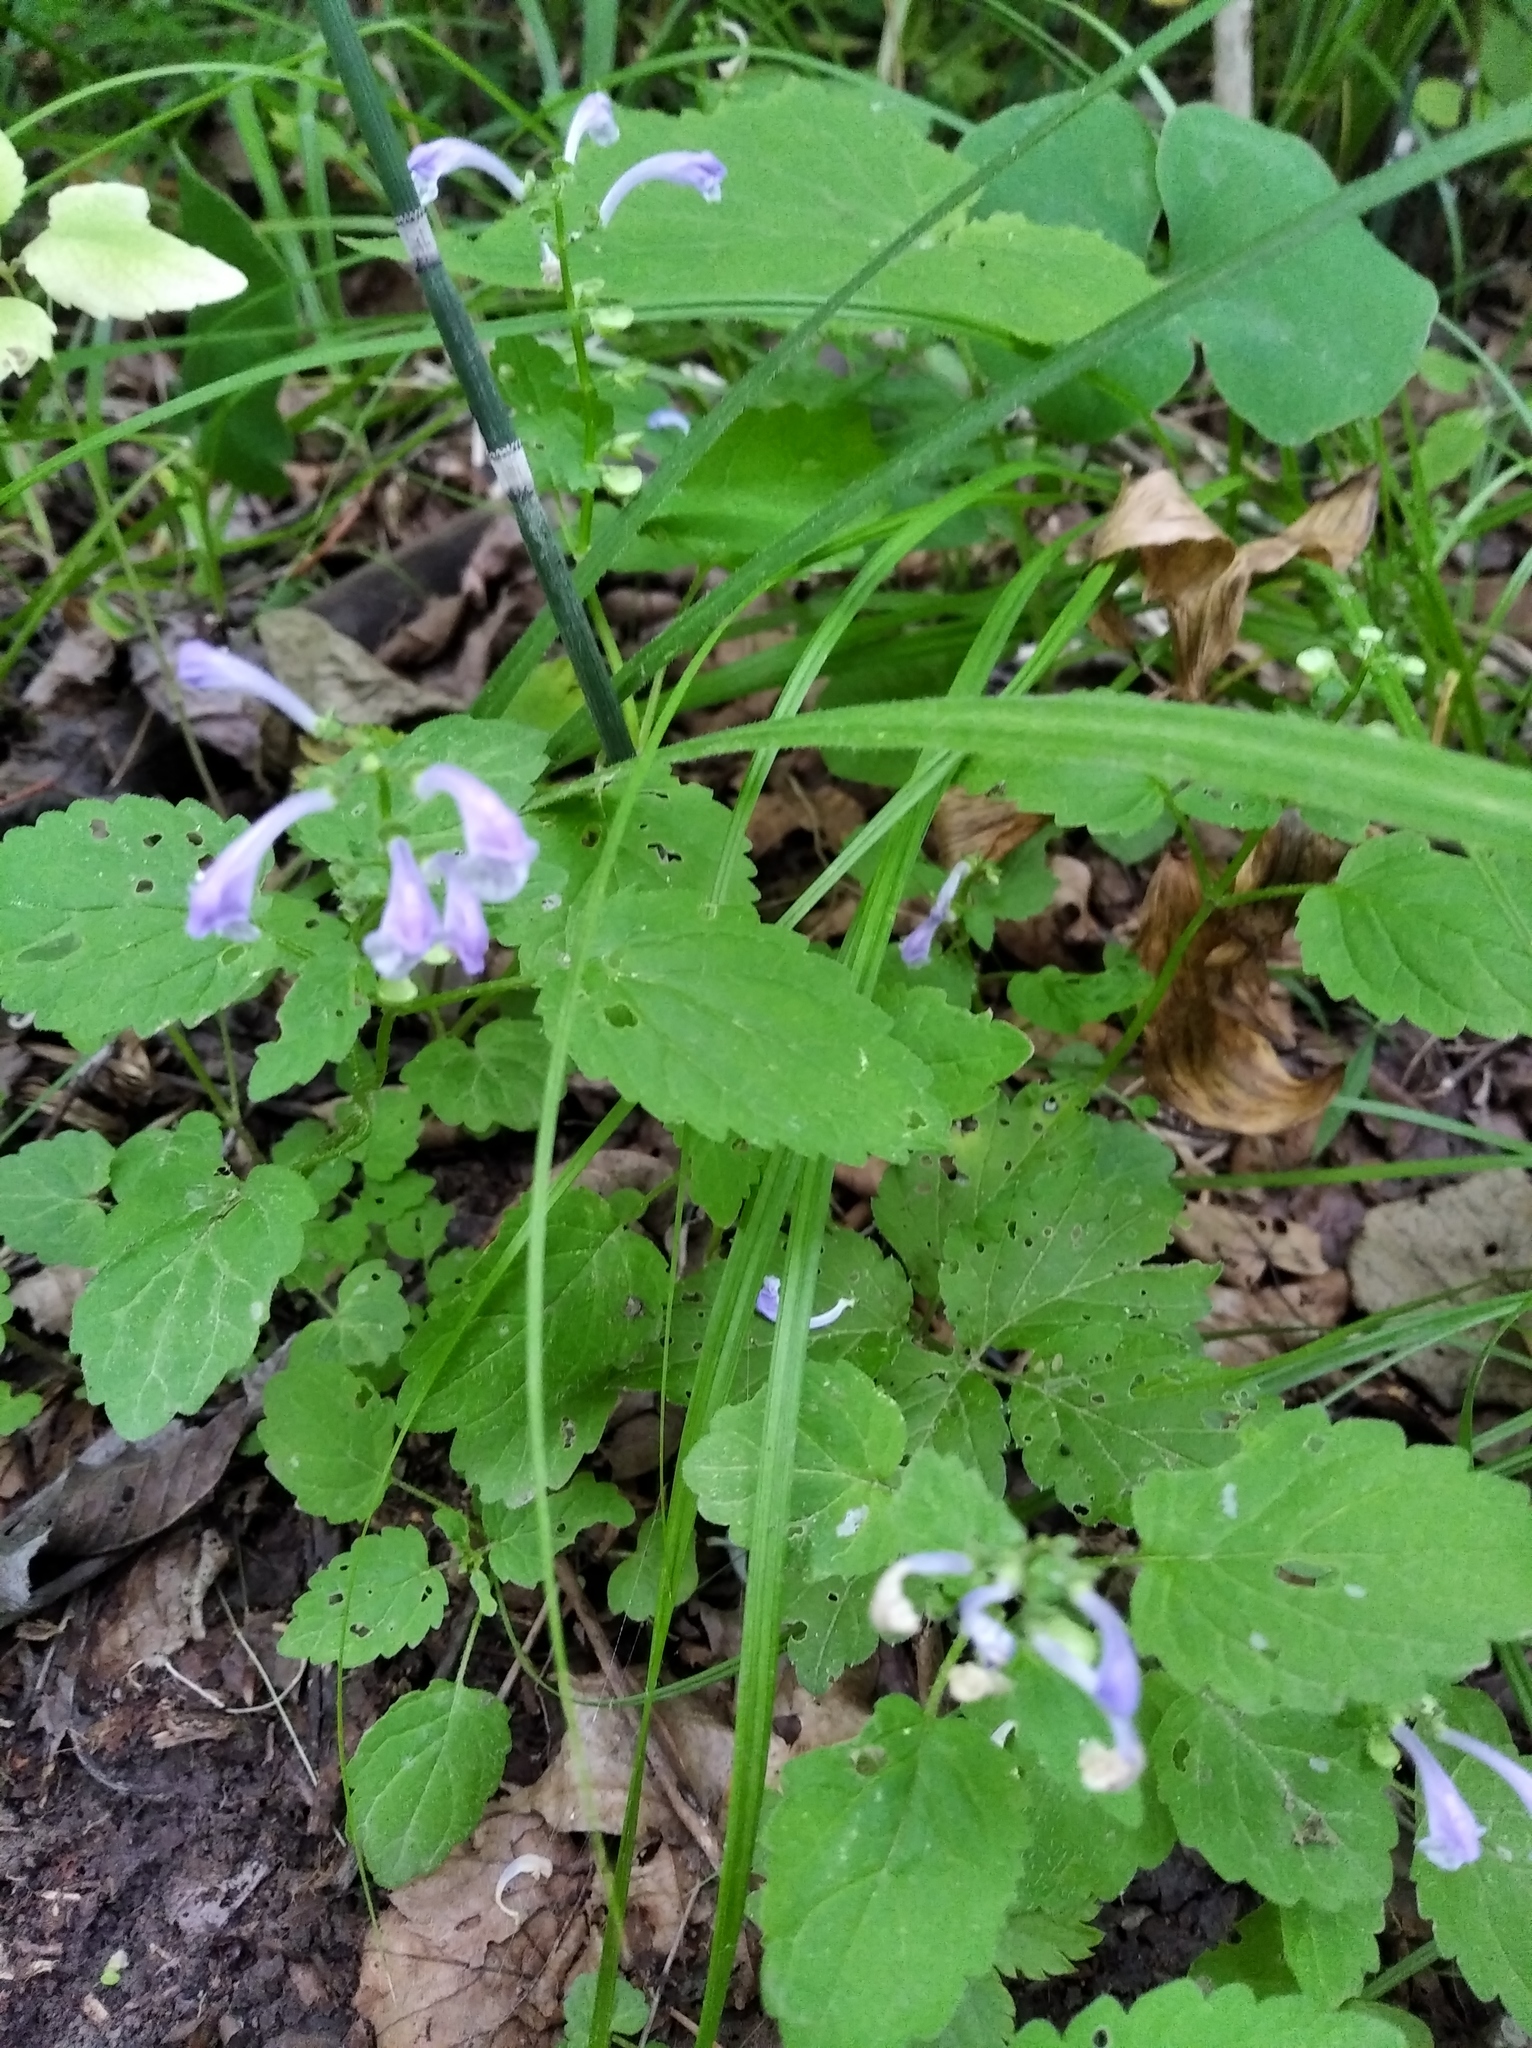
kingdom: Plantae
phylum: Tracheophyta
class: Magnoliopsida
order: Lamiales
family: Lamiaceae
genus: Scutellaria
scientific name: Scutellaria pekinensis
